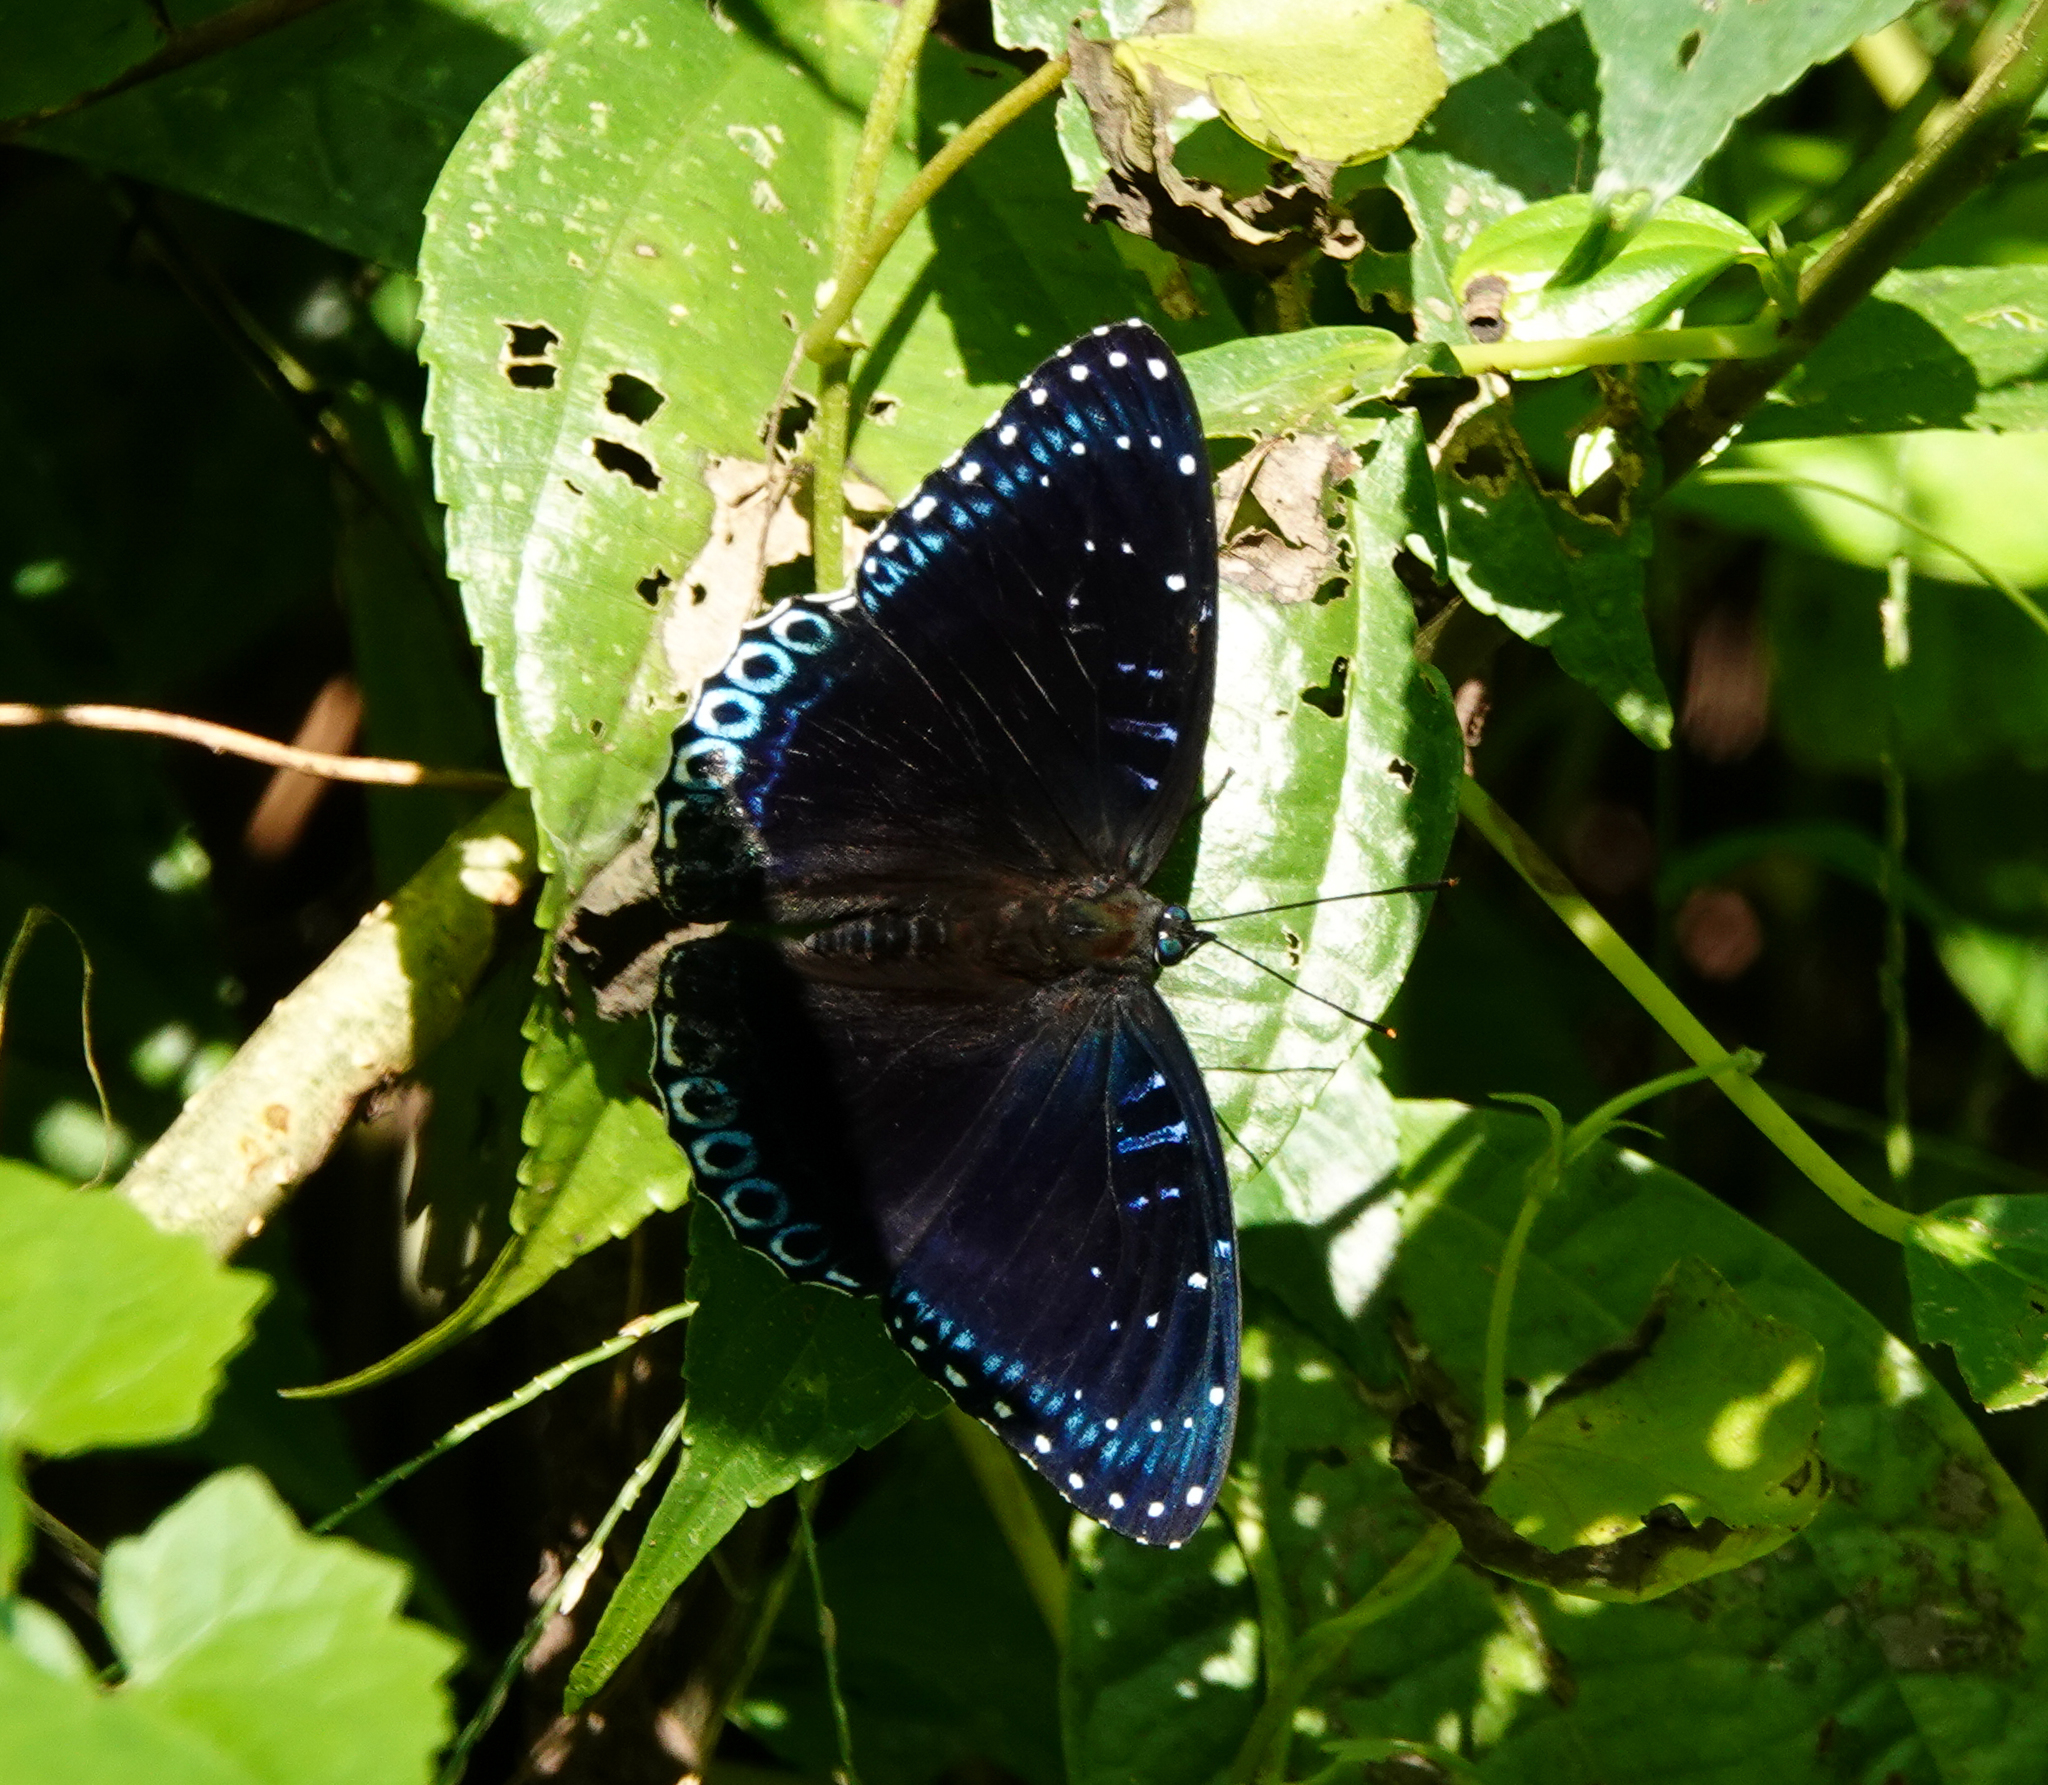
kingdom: Animalia
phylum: Arthropoda
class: Insecta
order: Lepidoptera
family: Nymphalidae
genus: Stibochiona
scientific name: Stibochiona nicea
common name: Popinjay
